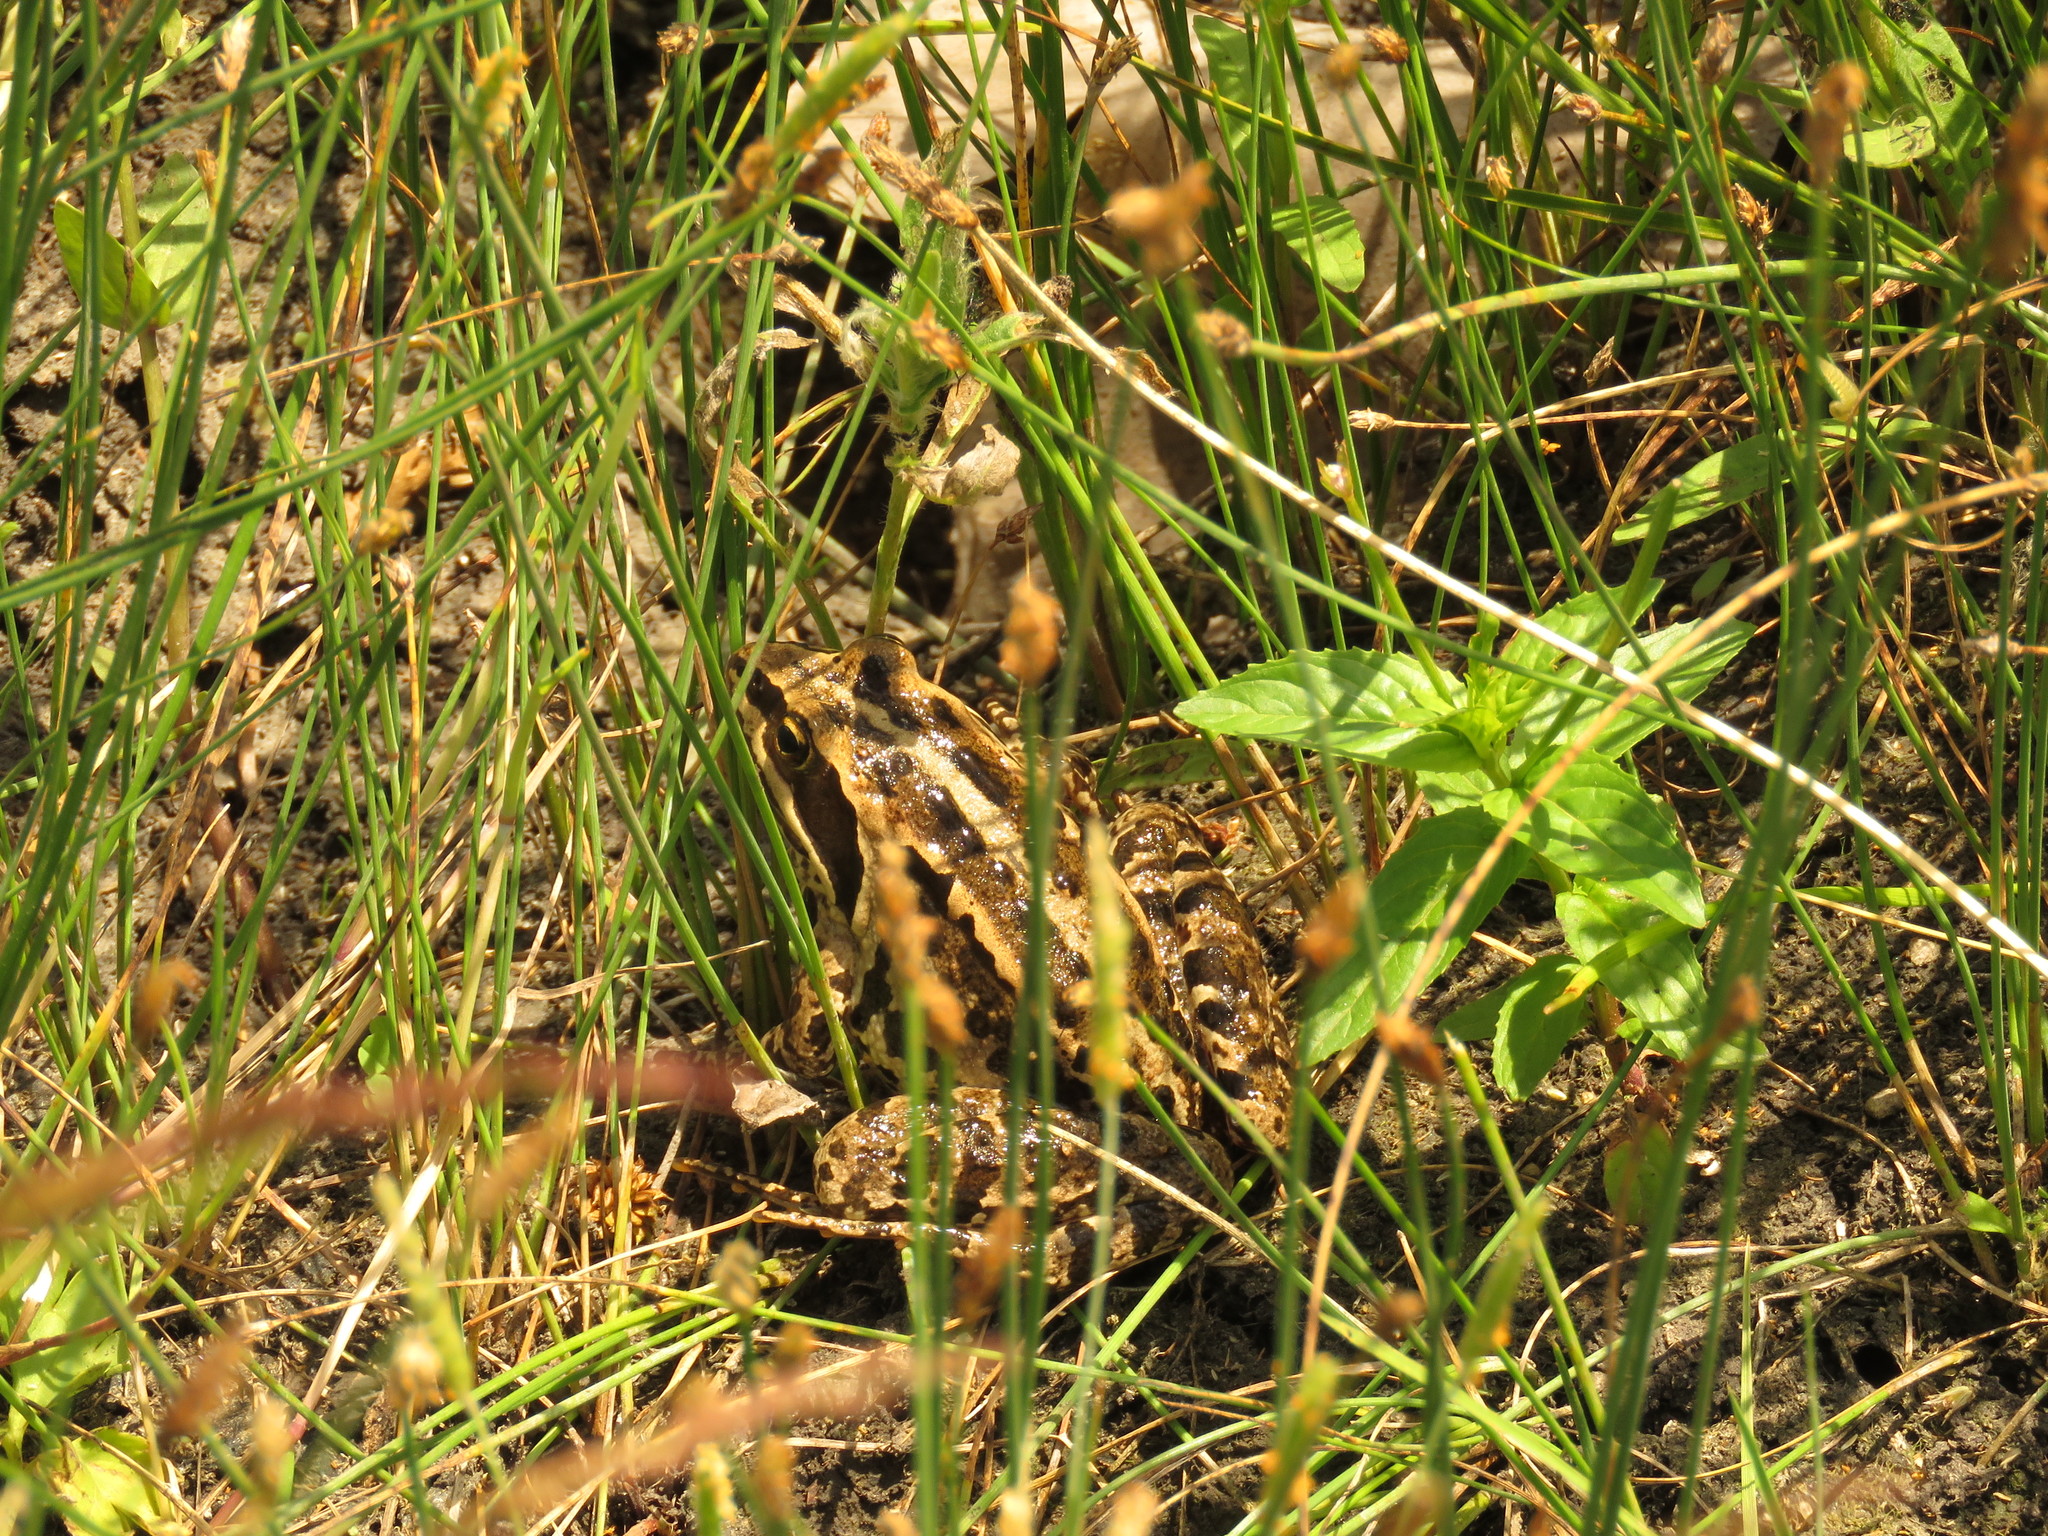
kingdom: Animalia
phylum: Chordata
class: Amphibia
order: Anura
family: Ranidae
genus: Rana
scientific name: Rana macrocnemis
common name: Banded frog
